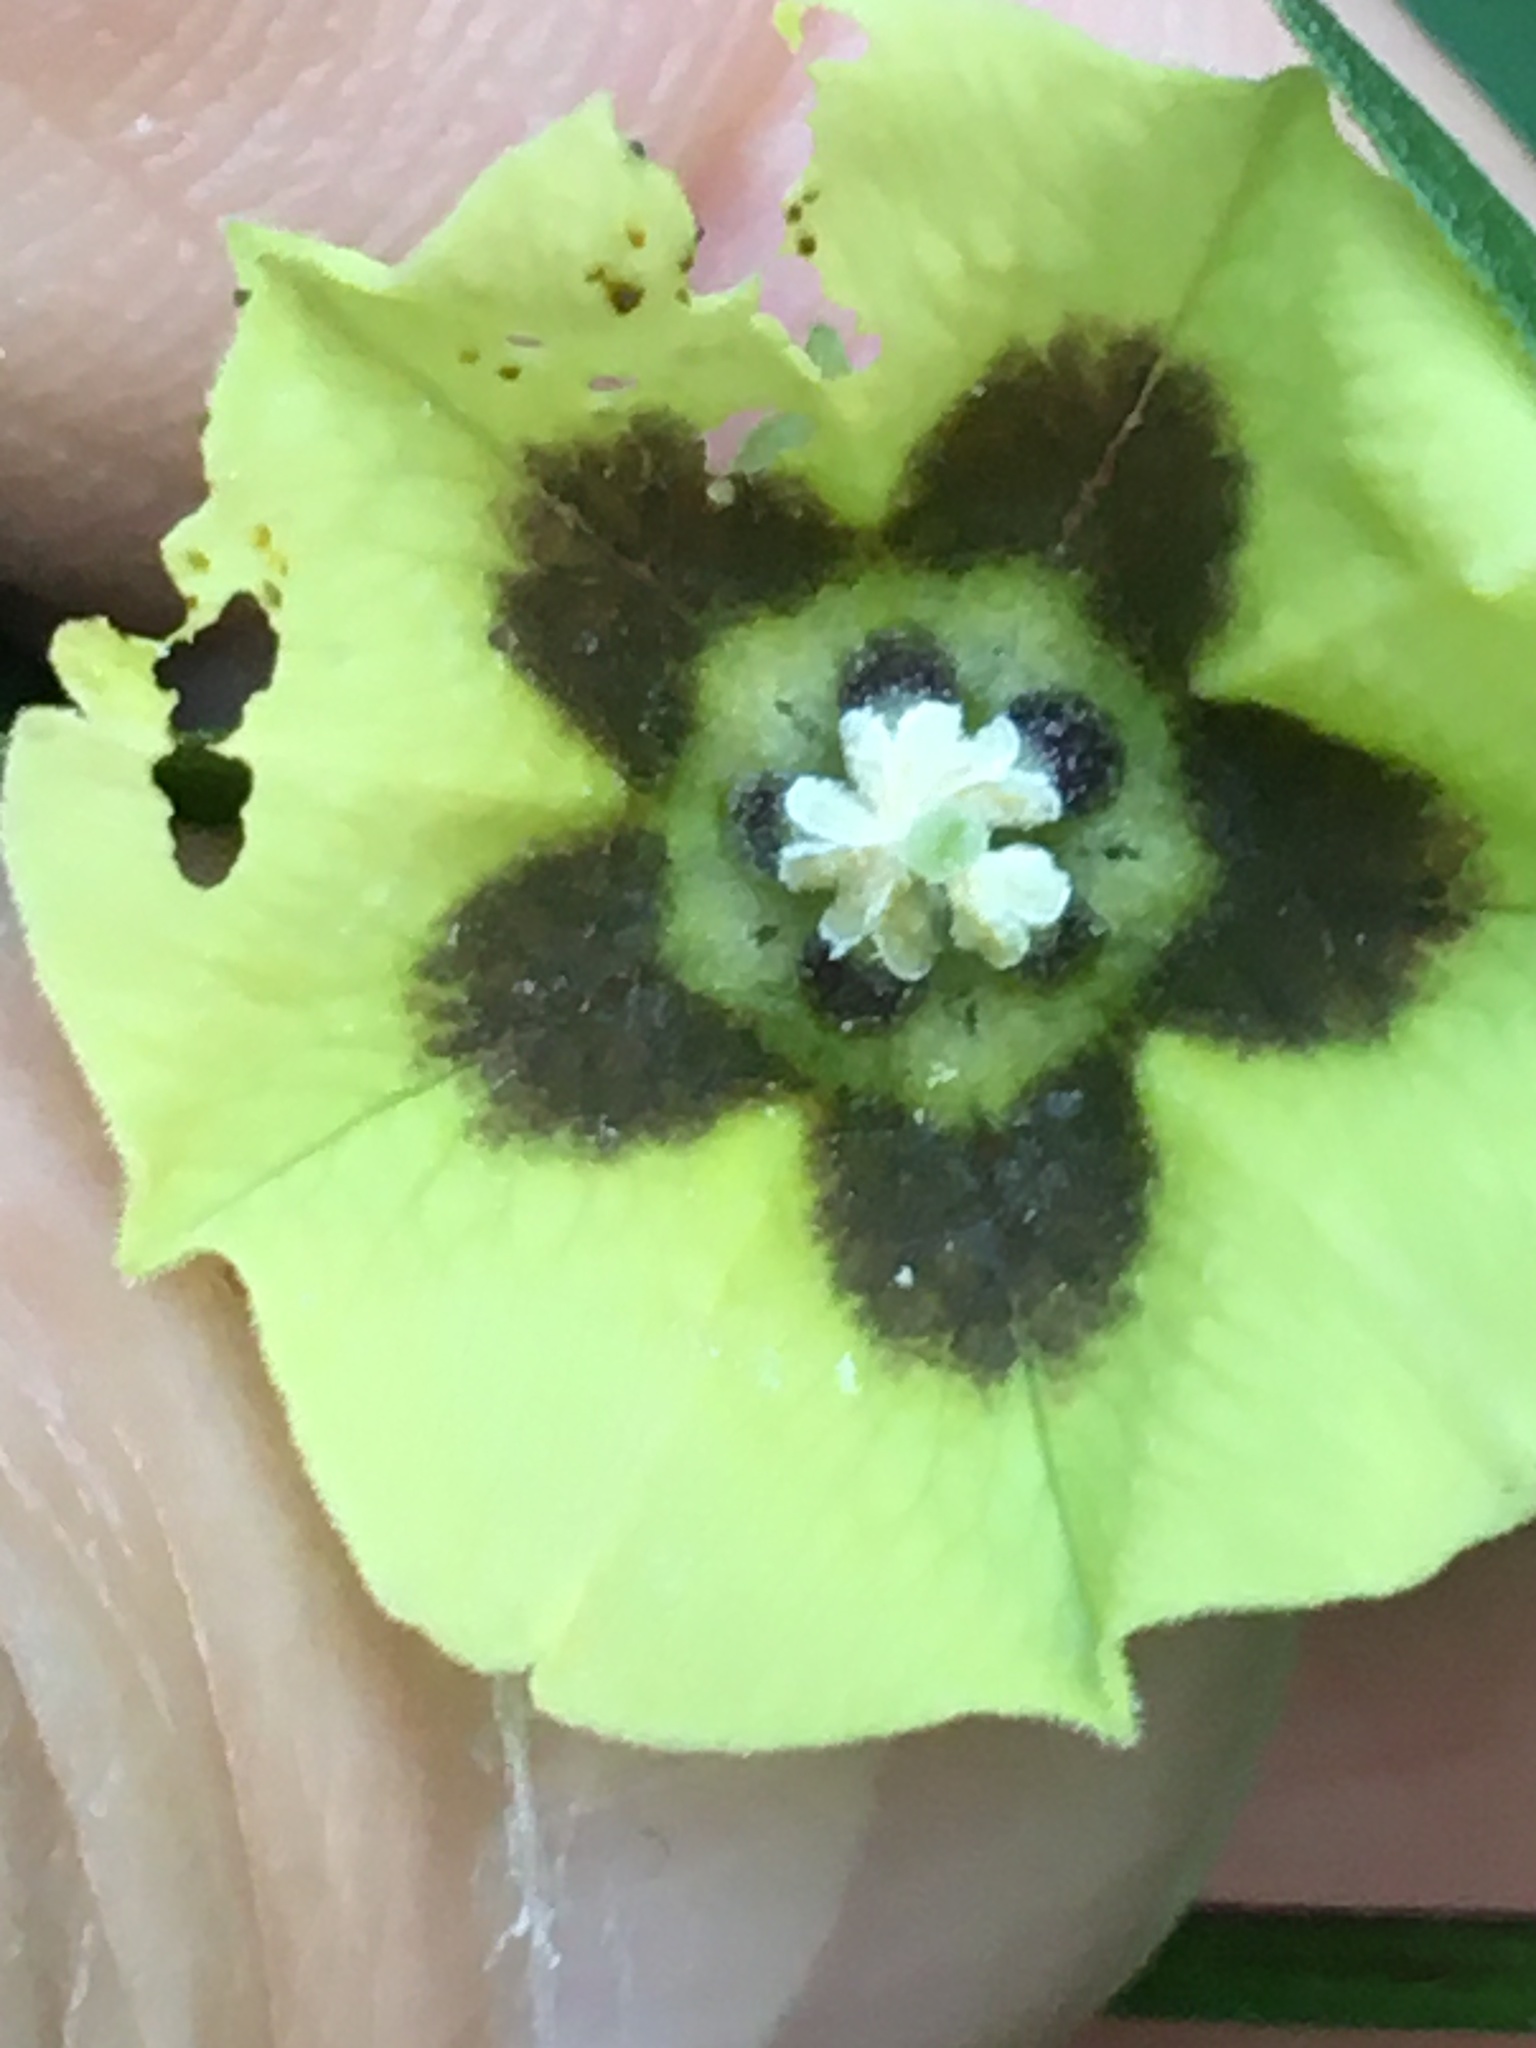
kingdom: Plantae
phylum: Tracheophyta
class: Magnoliopsida
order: Solanales
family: Solanaceae
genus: Physalis
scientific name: Physalis longifolia
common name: Common ground-cherry
